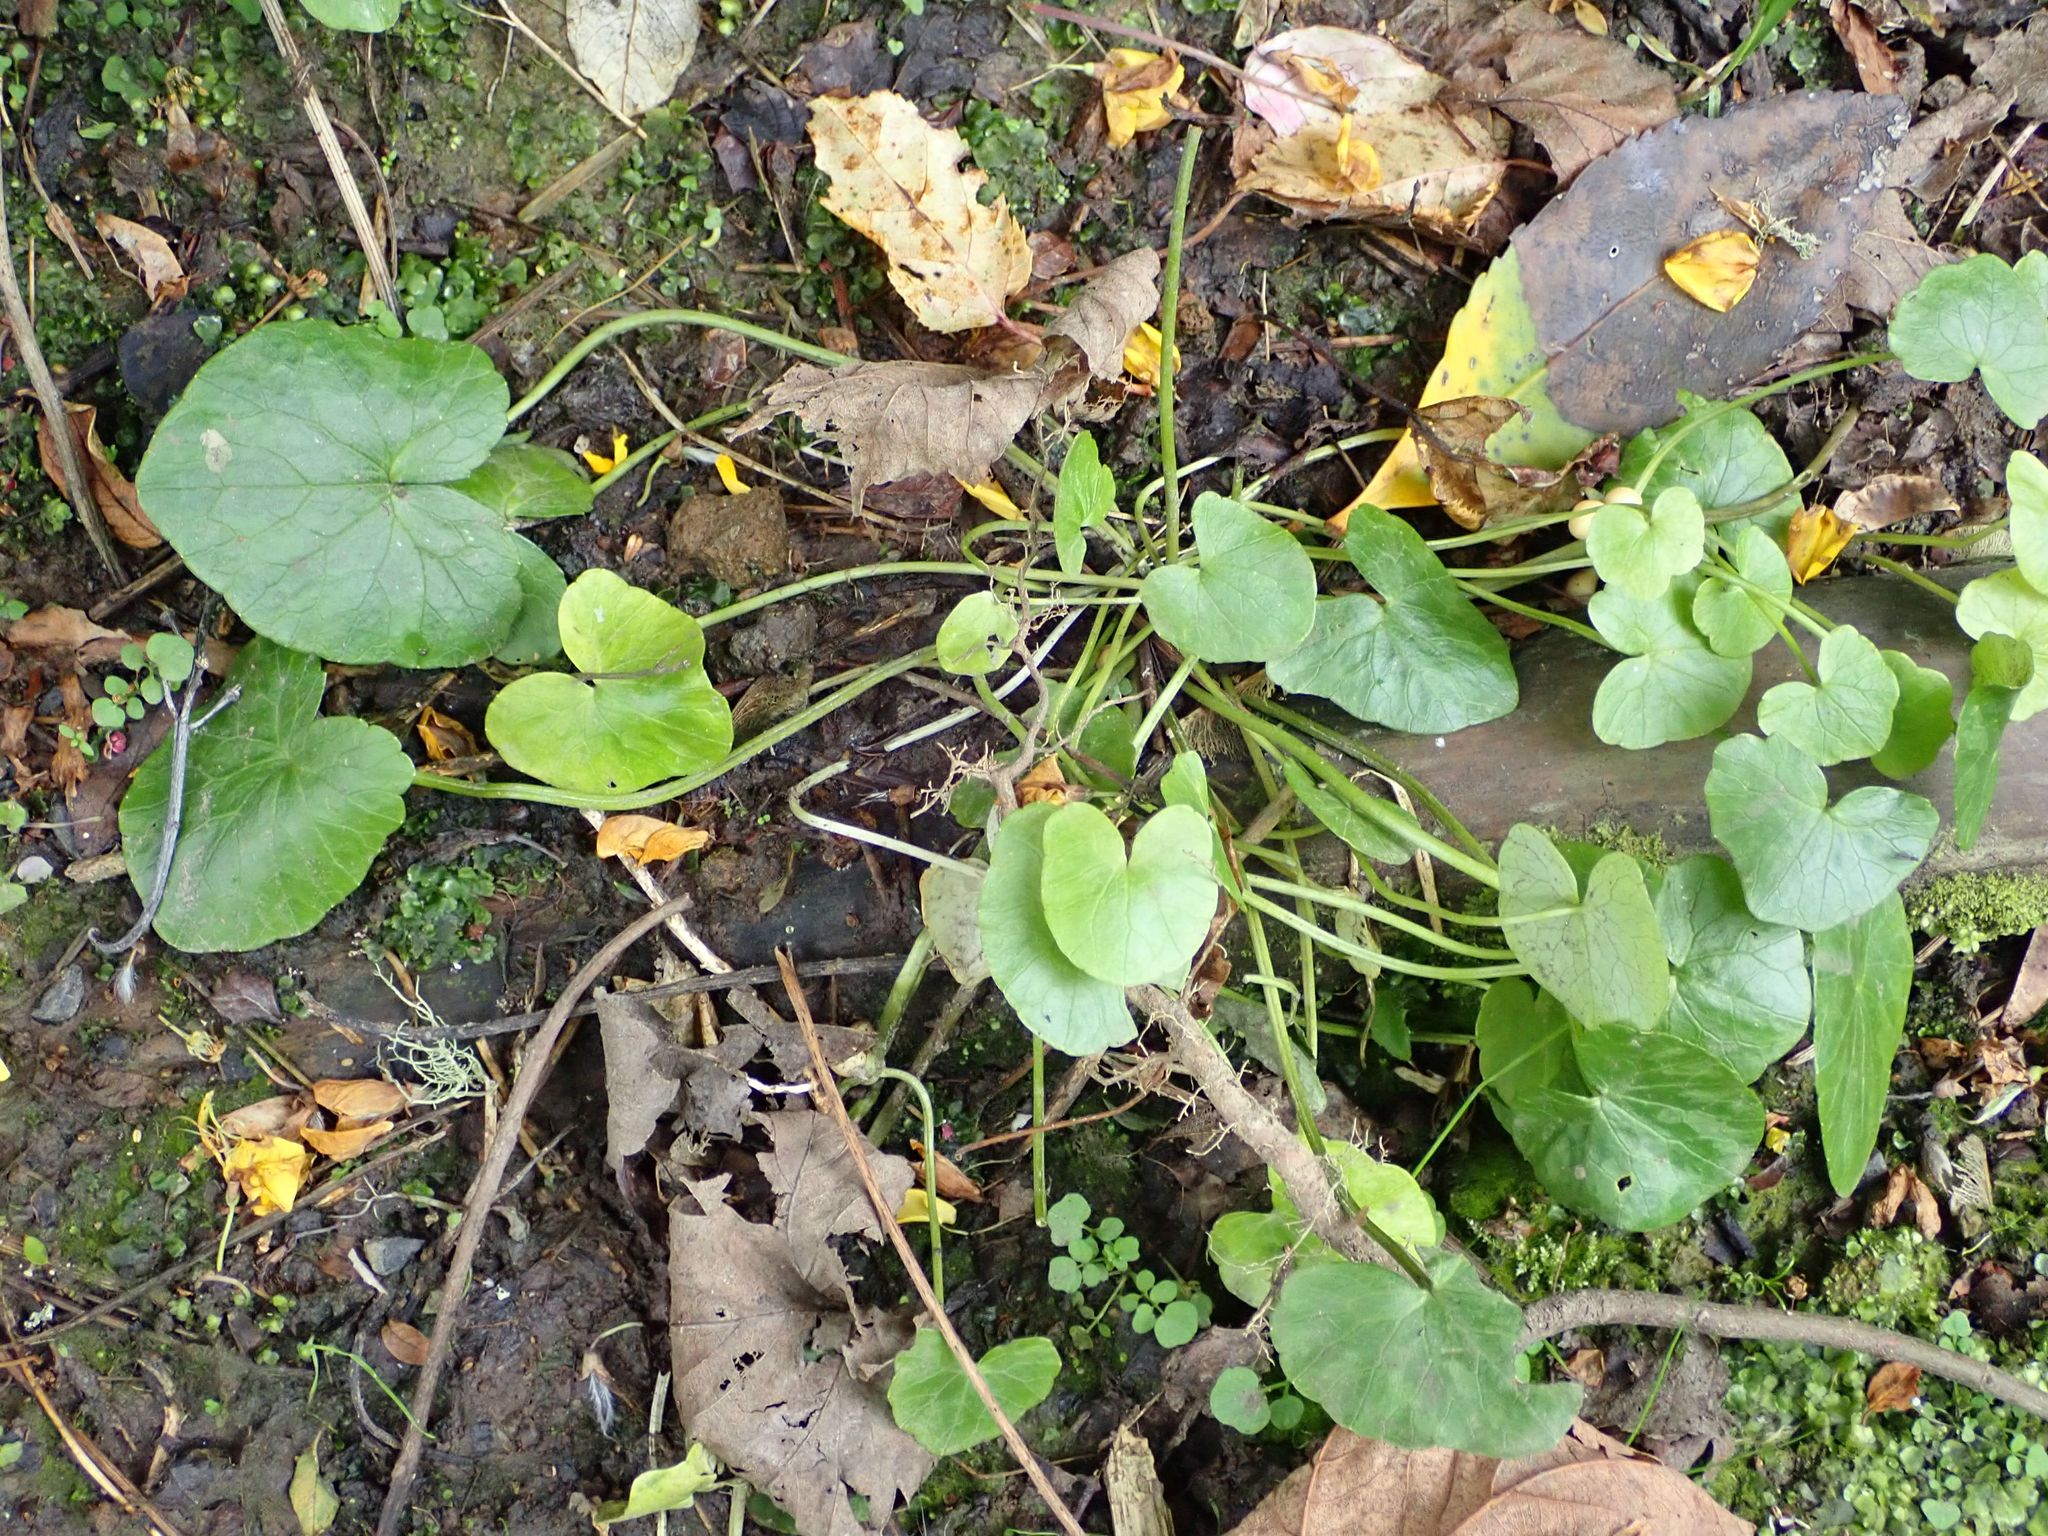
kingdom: Plantae
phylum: Tracheophyta
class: Magnoliopsida
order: Ranunculales
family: Ranunculaceae
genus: Ficaria
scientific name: Ficaria verna
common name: Lesser celandine
